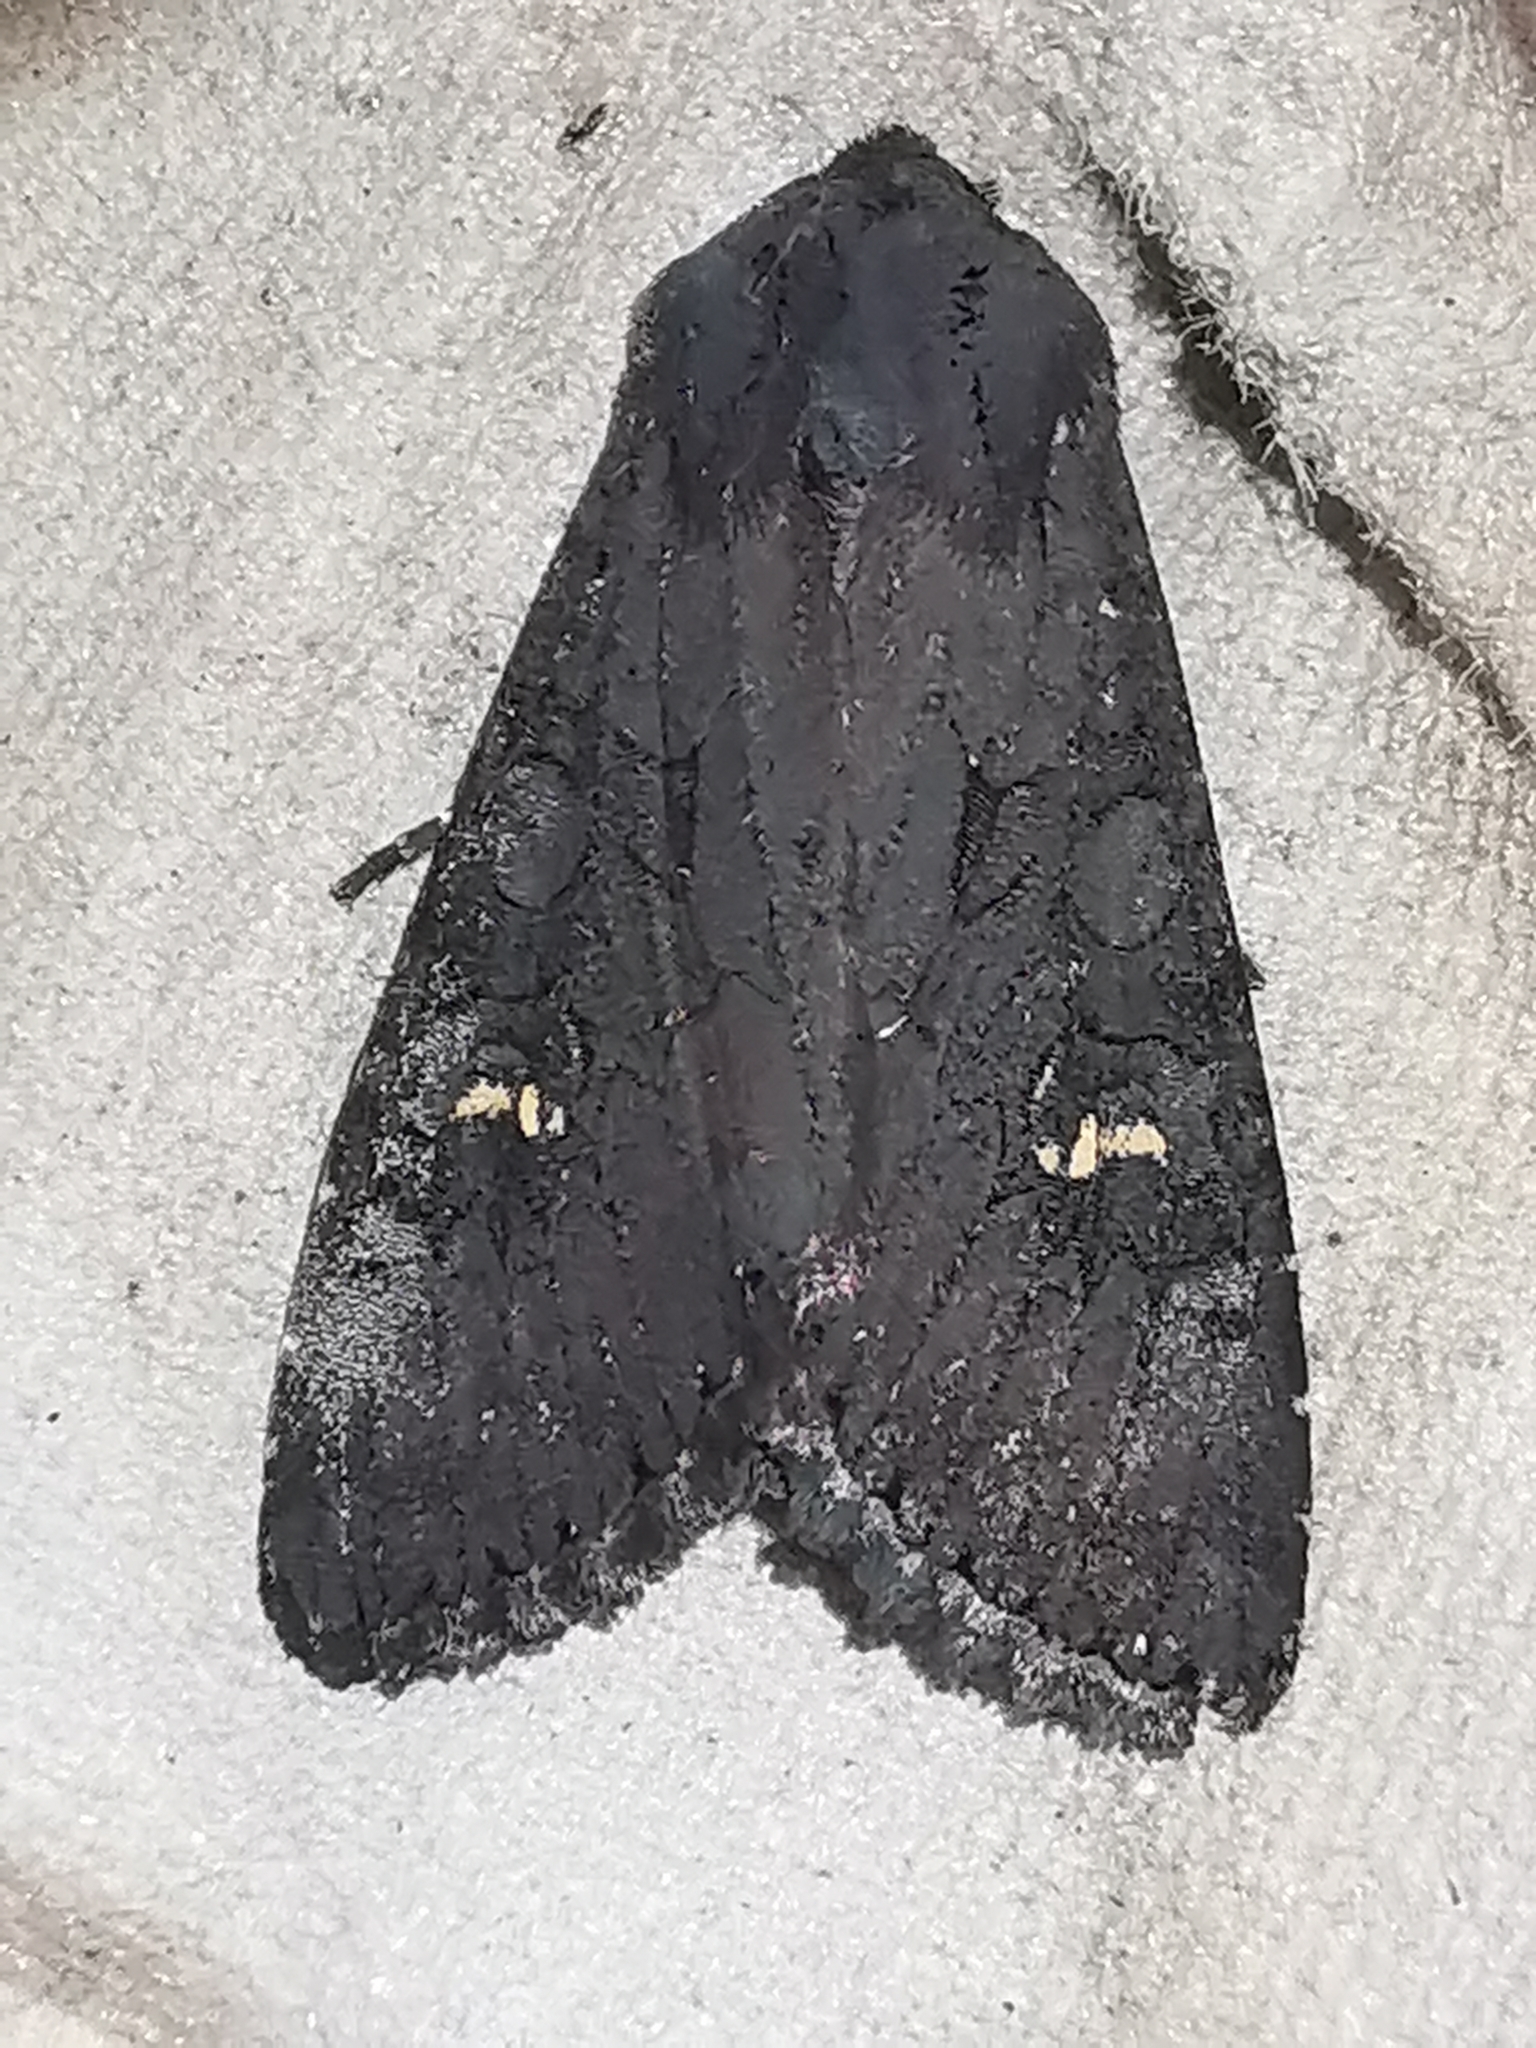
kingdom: Animalia
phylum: Arthropoda
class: Insecta
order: Lepidoptera
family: Noctuidae
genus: Aporophyla
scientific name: Aporophyla nigra
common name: Black rustic
